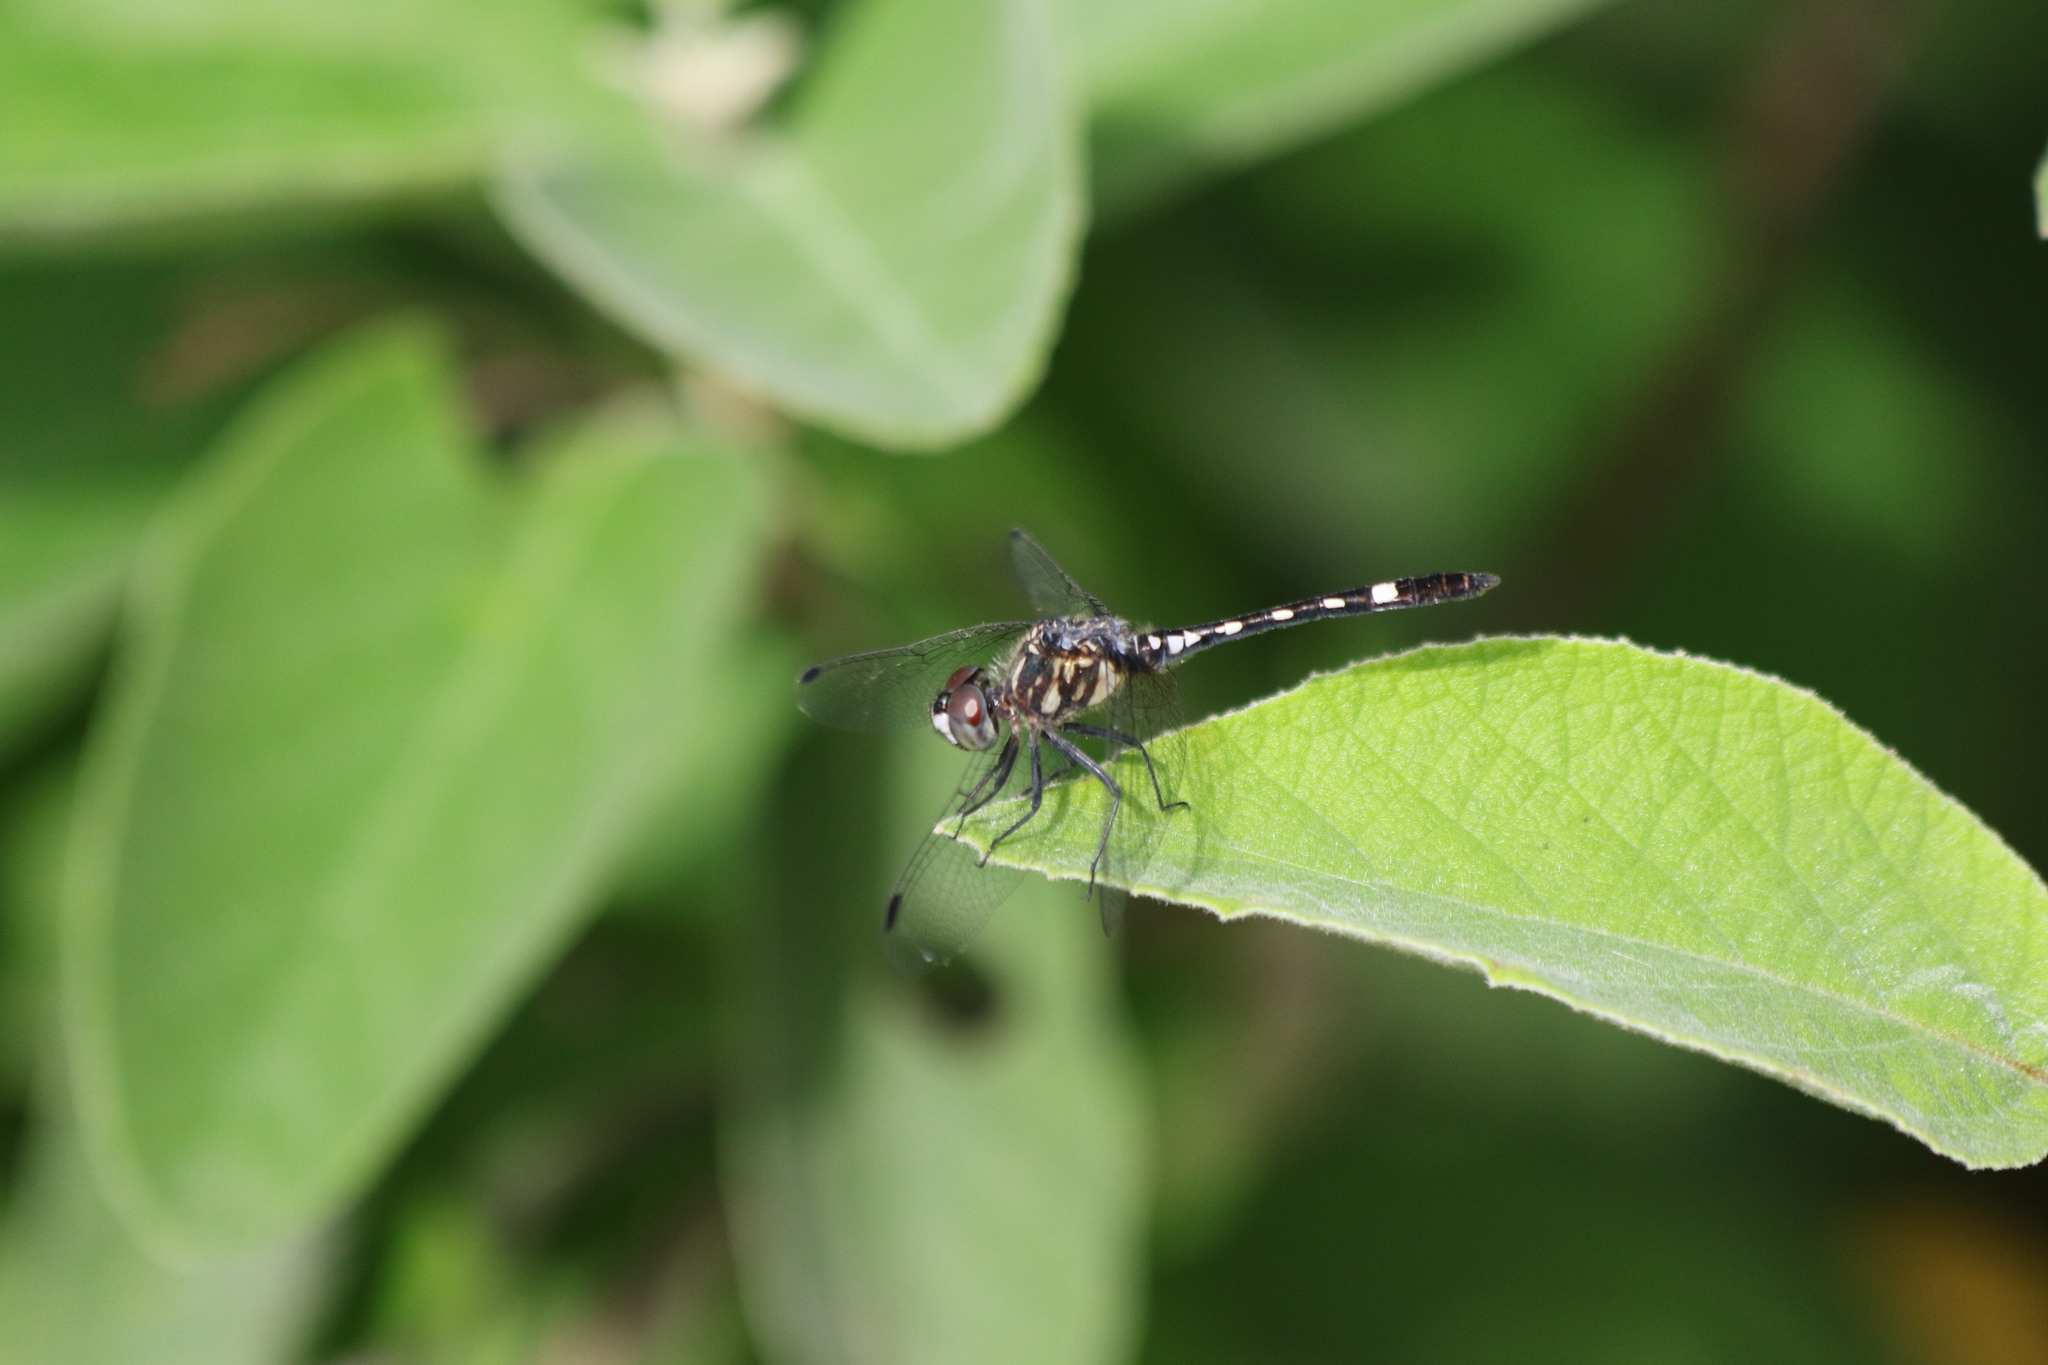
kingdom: Animalia
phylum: Arthropoda
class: Insecta
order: Odonata
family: Libellulidae
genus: Micrathyria
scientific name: Micrathyria hagenii
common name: Thornbush dasher
